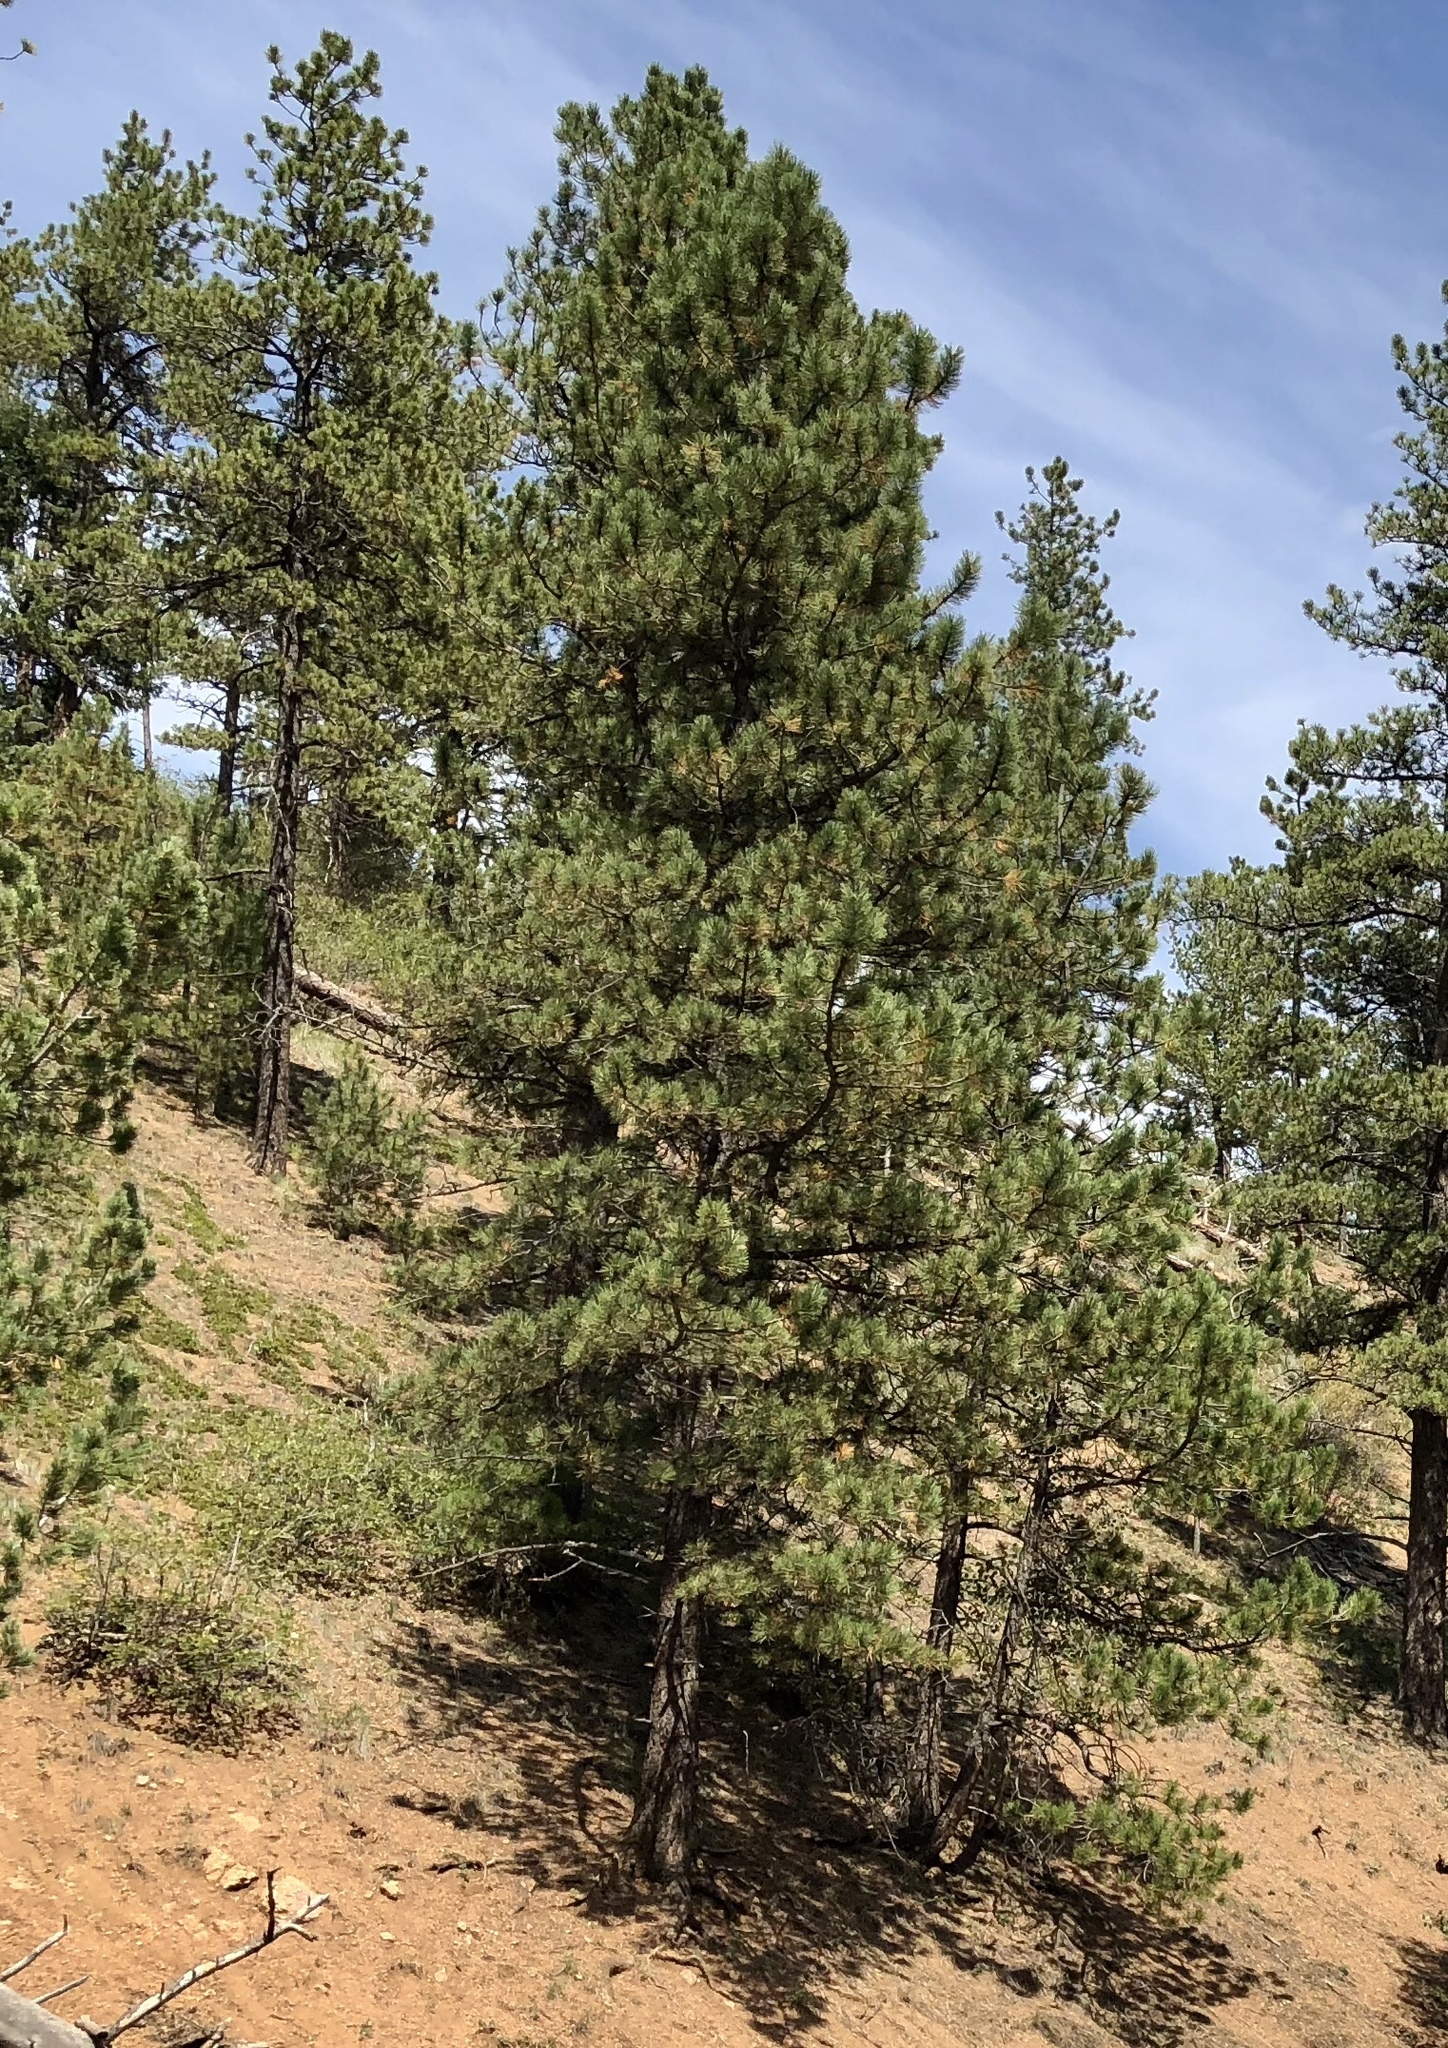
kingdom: Plantae
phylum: Tracheophyta
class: Pinopsida
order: Pinales
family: Pinaceae
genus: Pinus
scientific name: Pinus ponderosa
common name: Western yellow-pine
